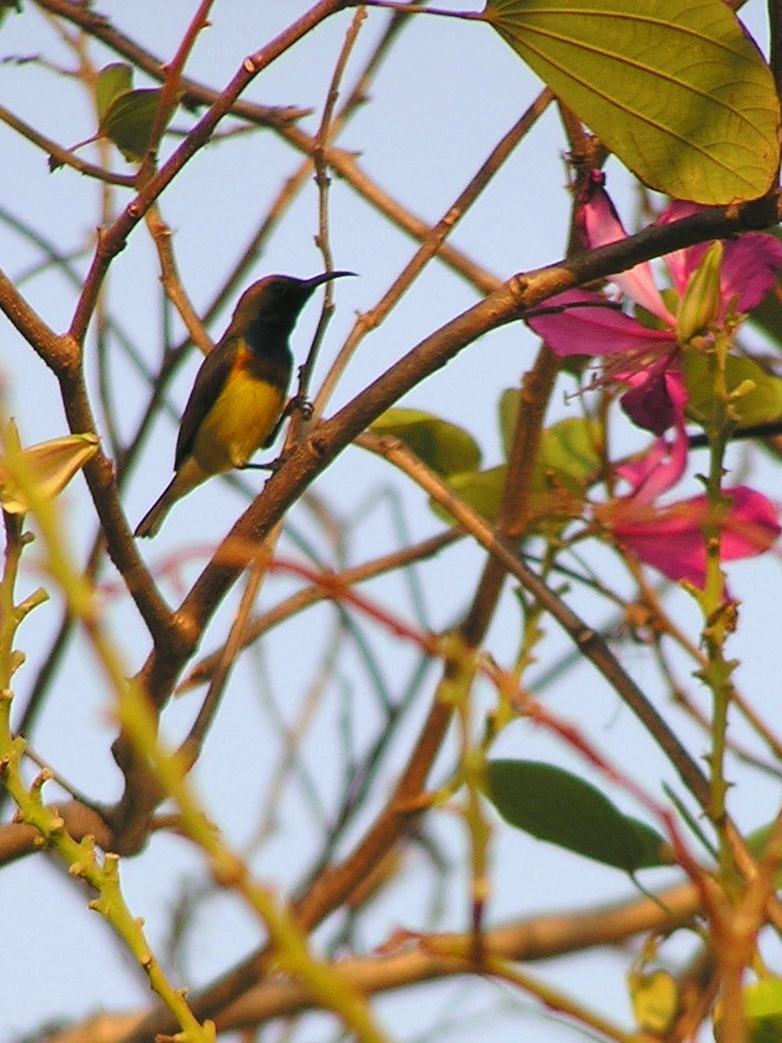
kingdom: Animalia
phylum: Chordata
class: Aves
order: Passeriformes
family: Nectariniidae
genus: Cinnyris
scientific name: Cinnyris
